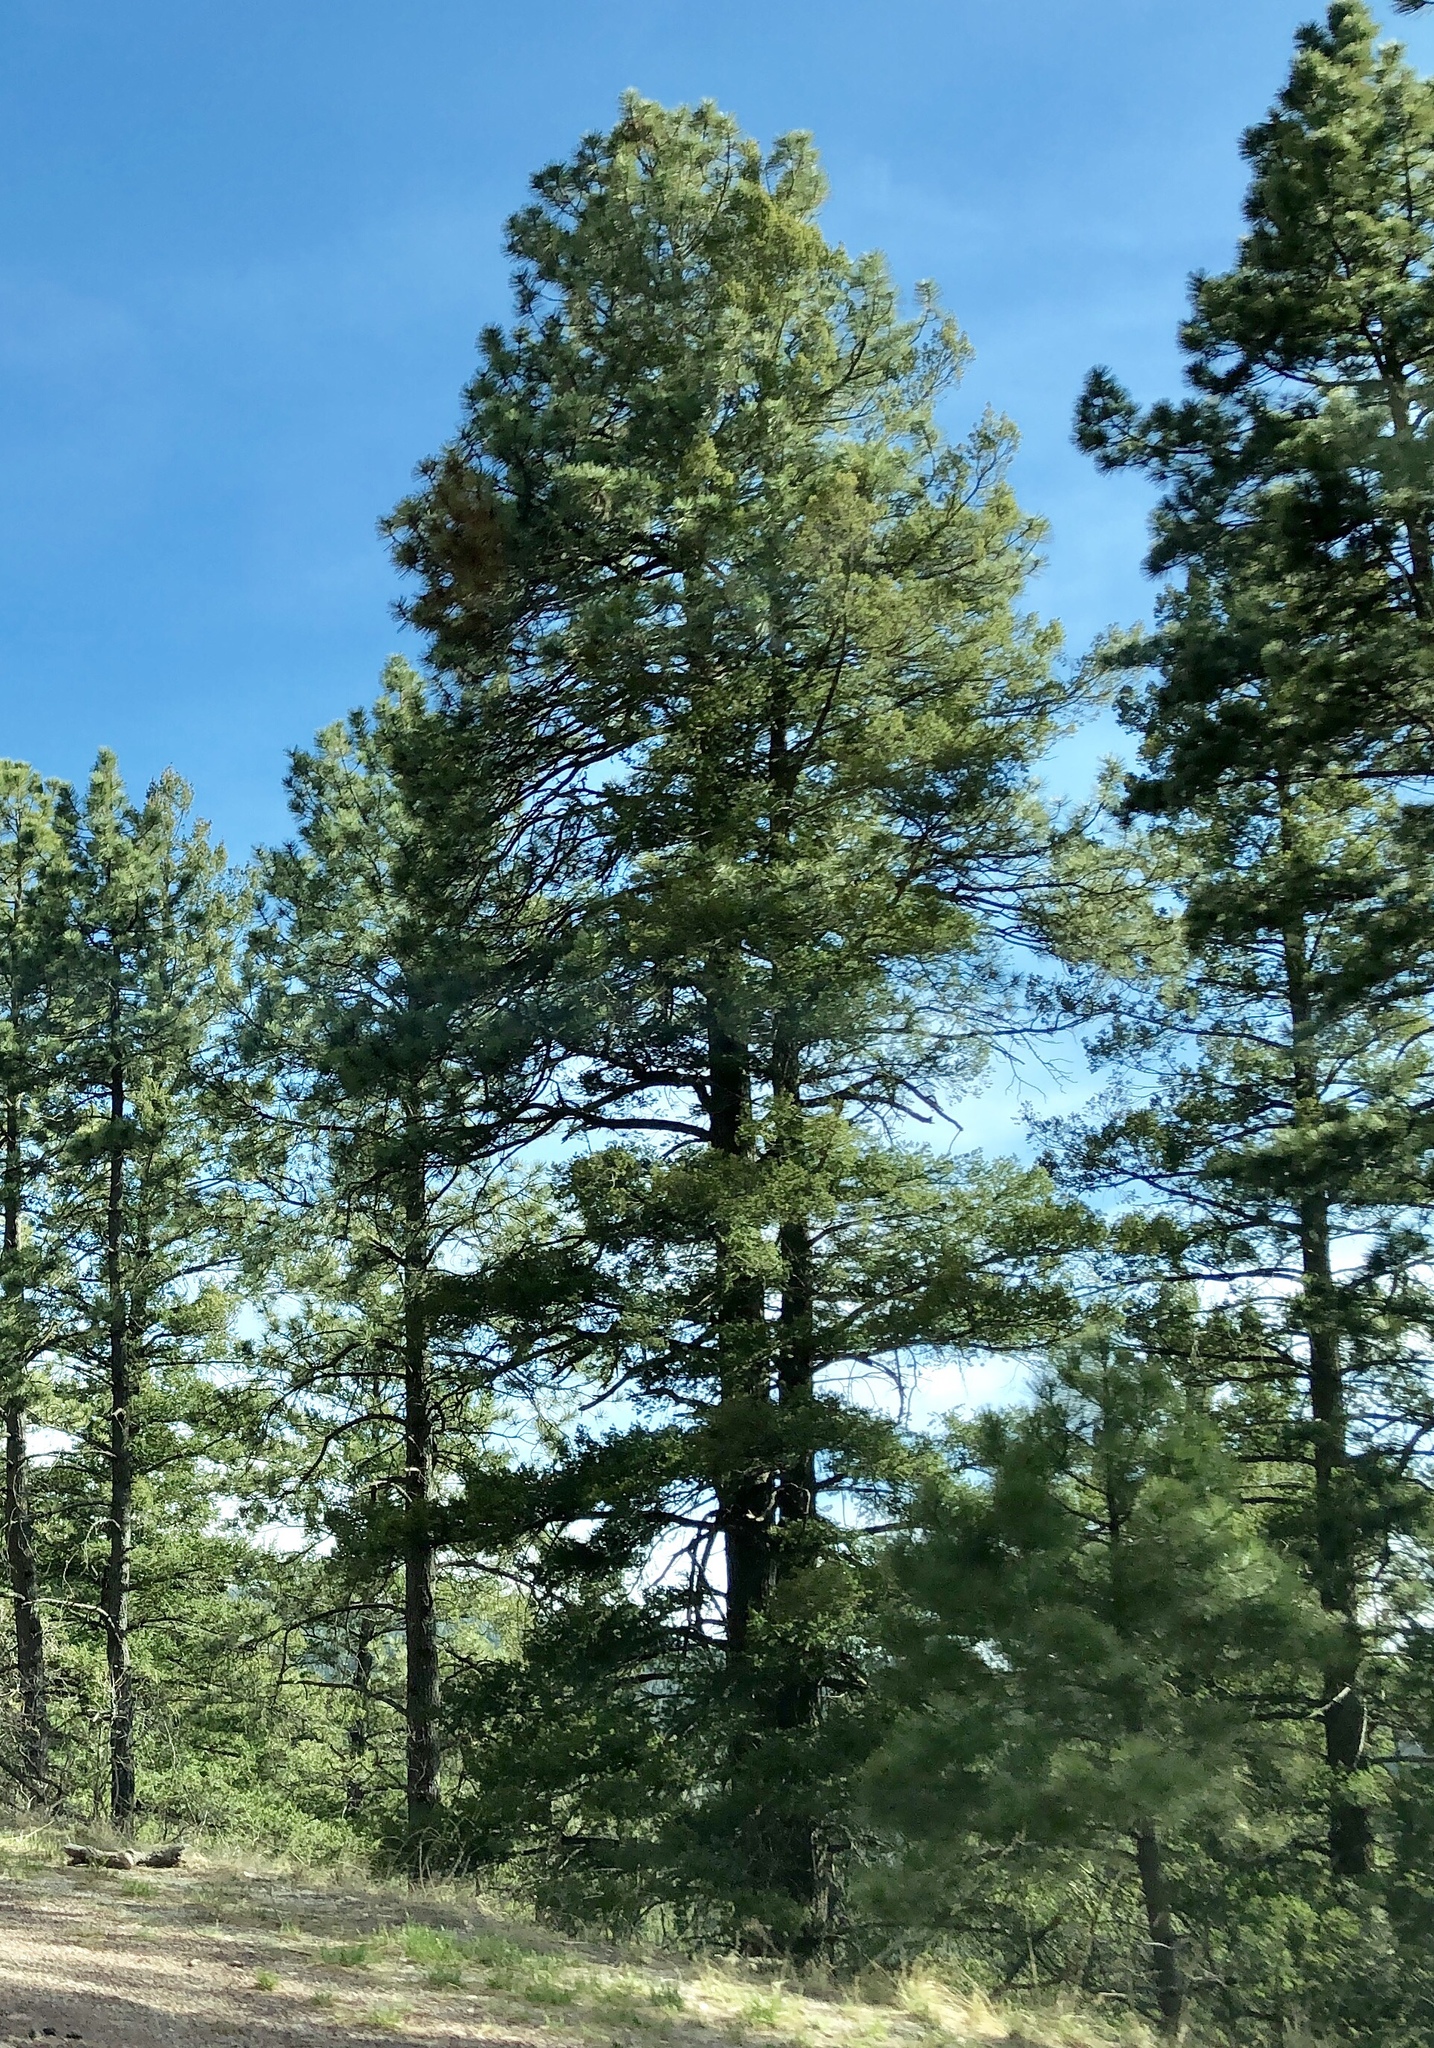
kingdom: Plantae
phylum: Tracheophyta
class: Pinopsida
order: Pinales
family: Pinaceae
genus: Pinus
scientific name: Pinus ponderosa
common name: Western yellow-pine
